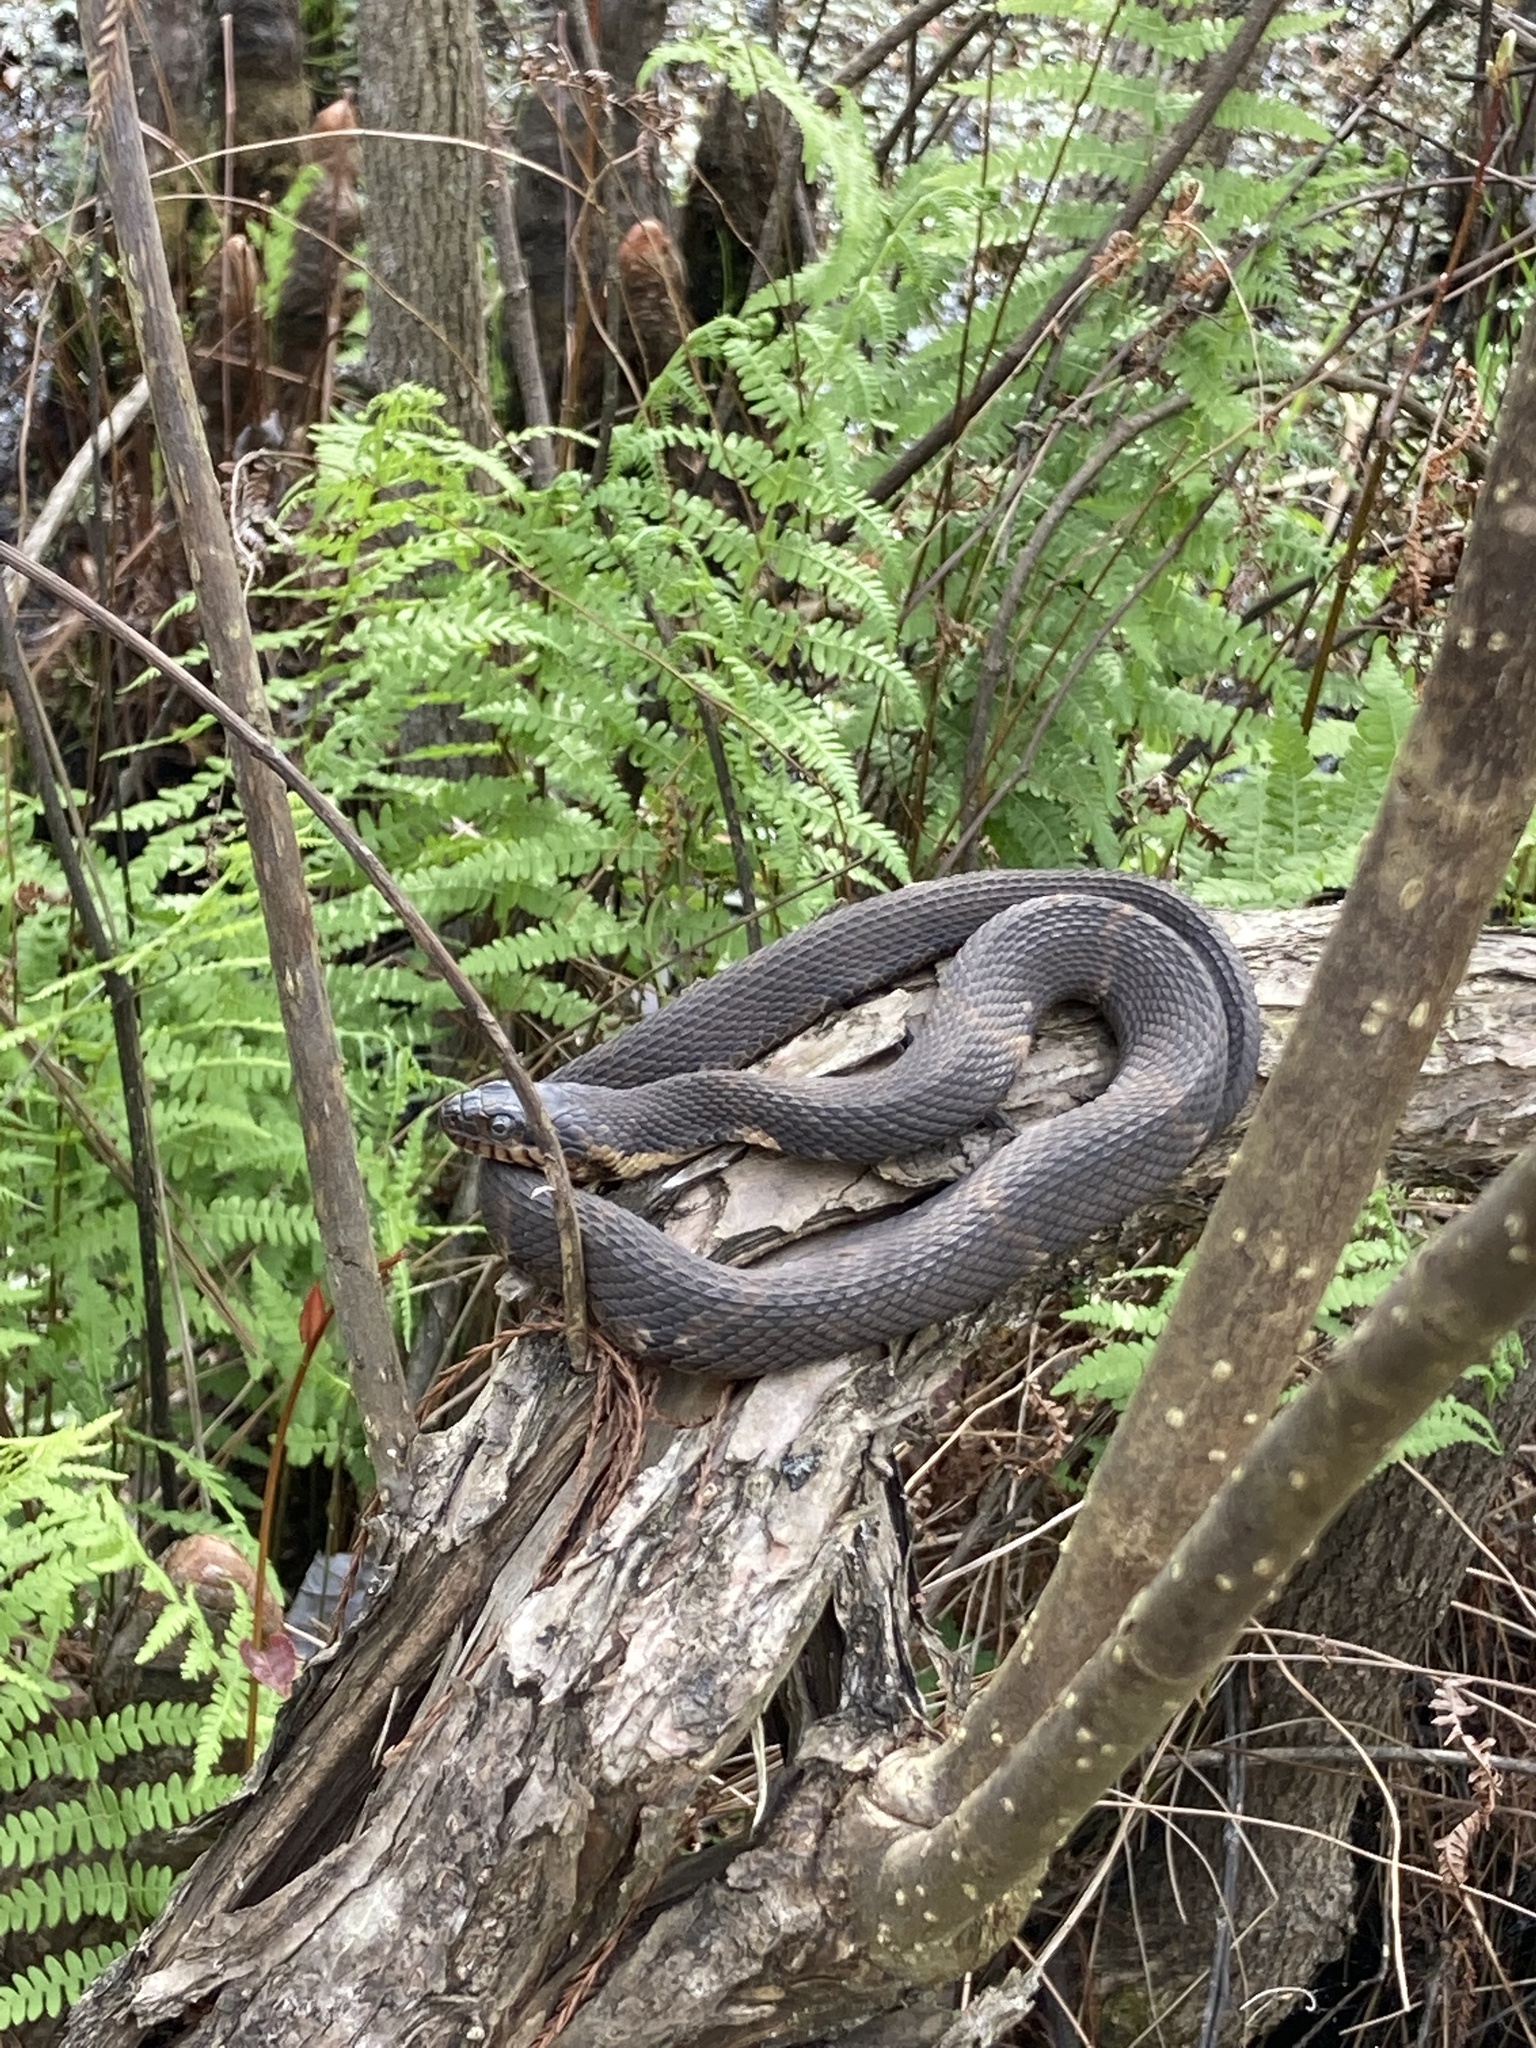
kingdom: Animalia
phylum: Chordata
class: Squamata
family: Colubridae
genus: Nerodia
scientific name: Nerodia fasciata
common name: Southern water snake
